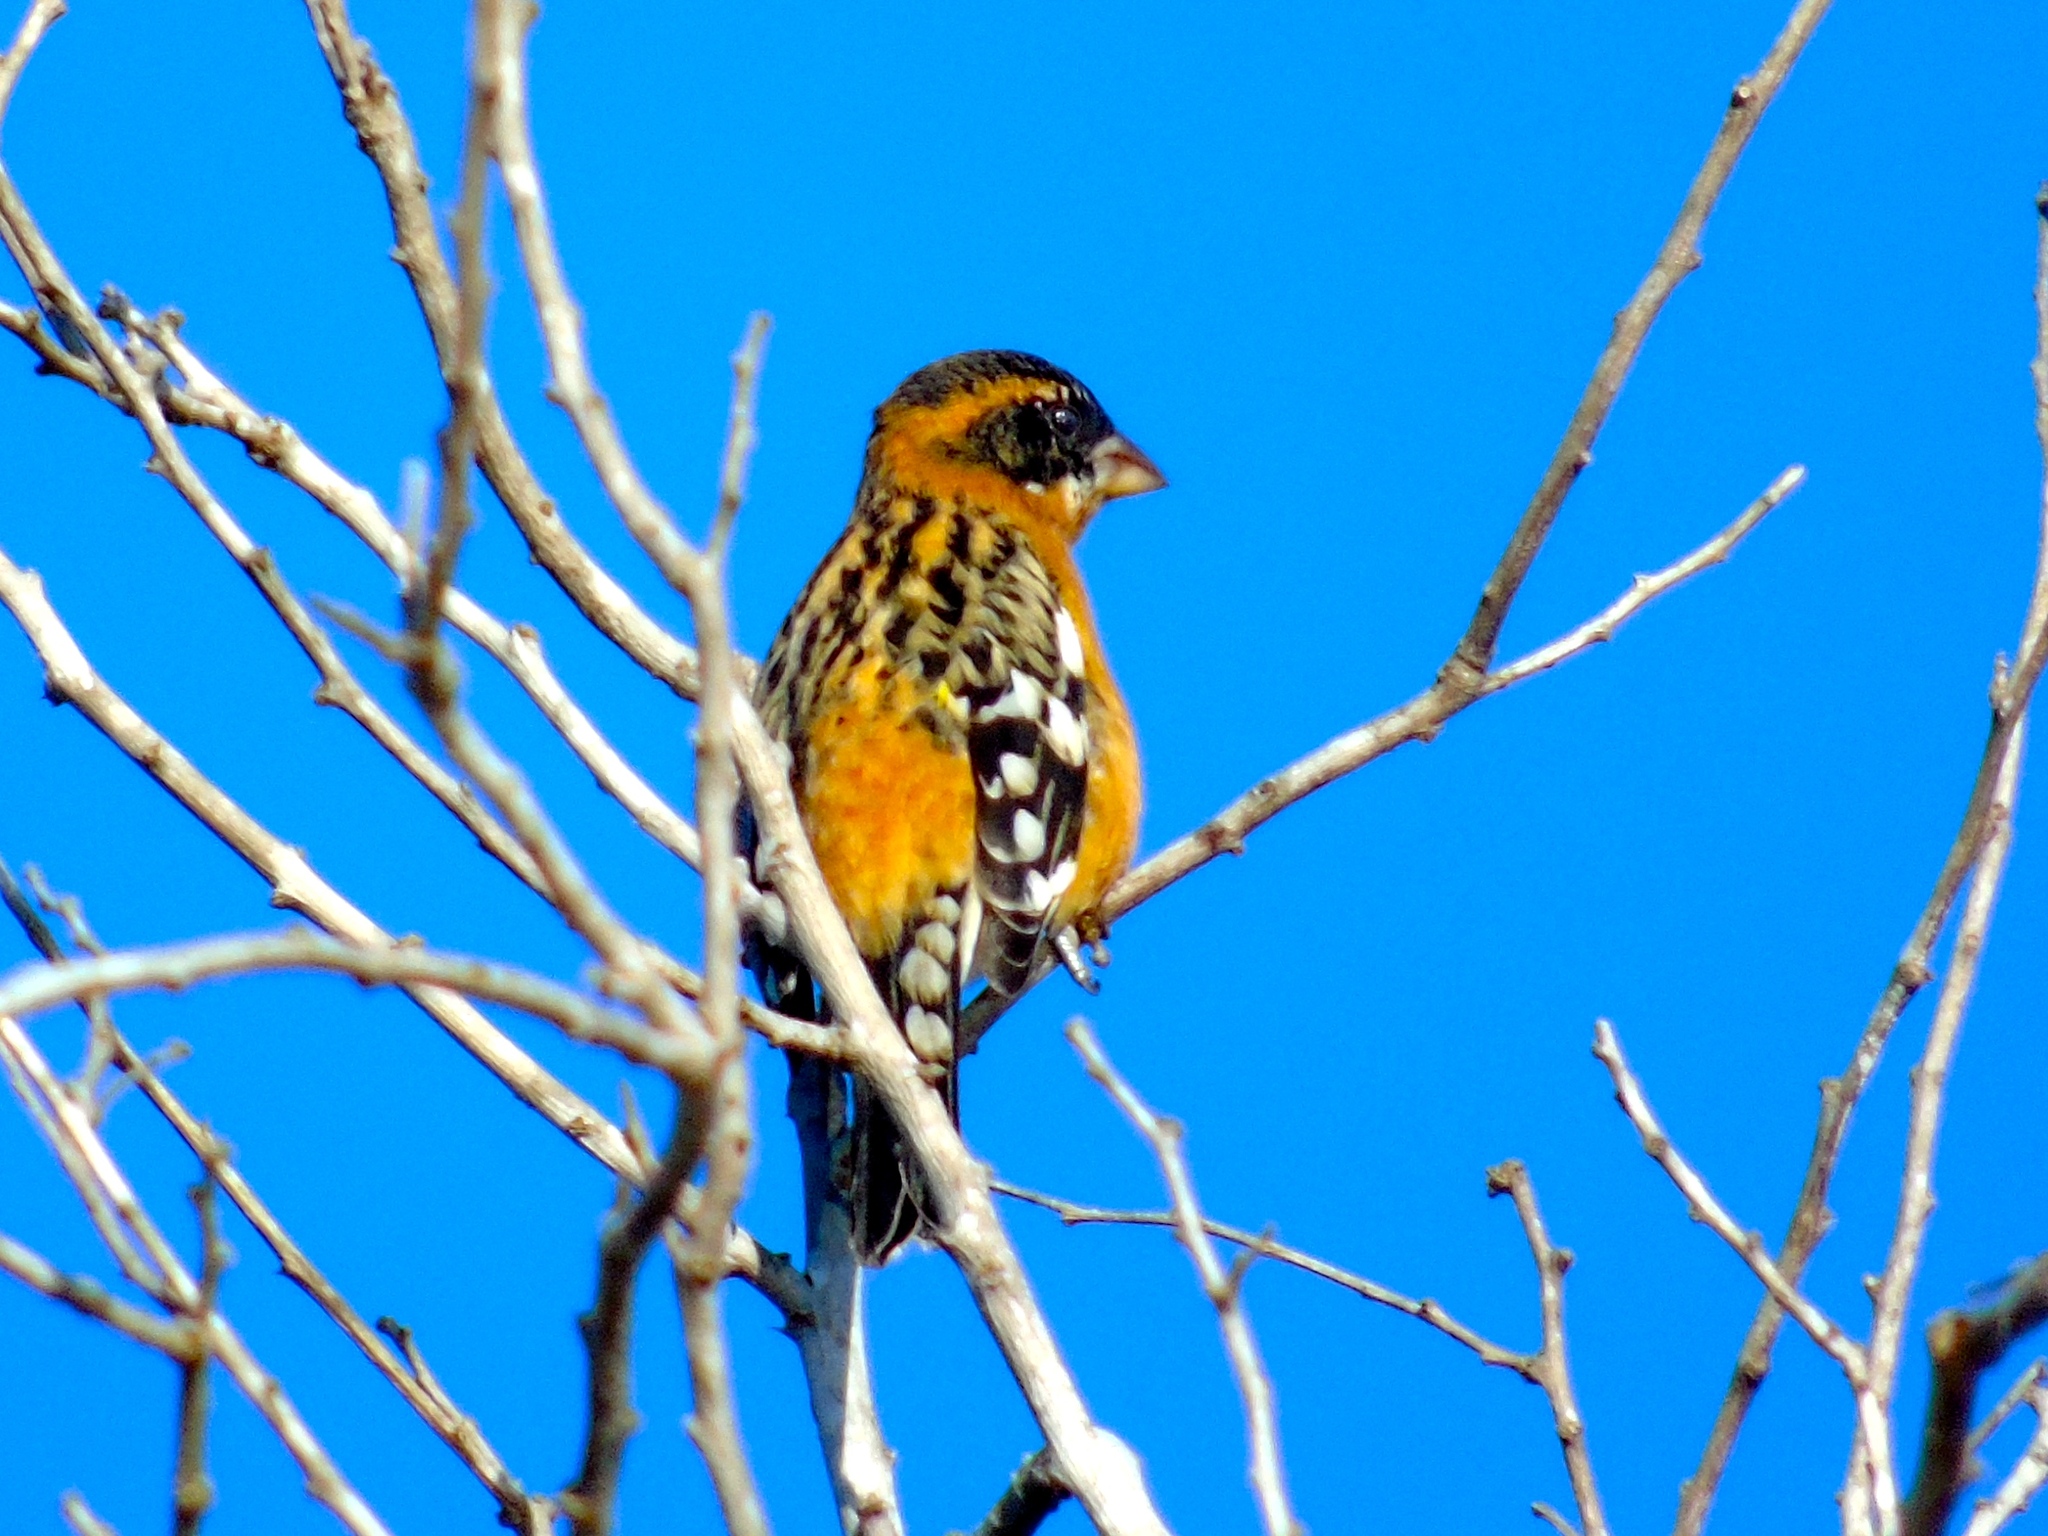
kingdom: Animalia
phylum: Chordata
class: Aves
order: Passeriformes
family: Cardinalidae
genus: Pheucticus
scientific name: Pheucticus melanocephalus
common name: Black-headed grosbeak
